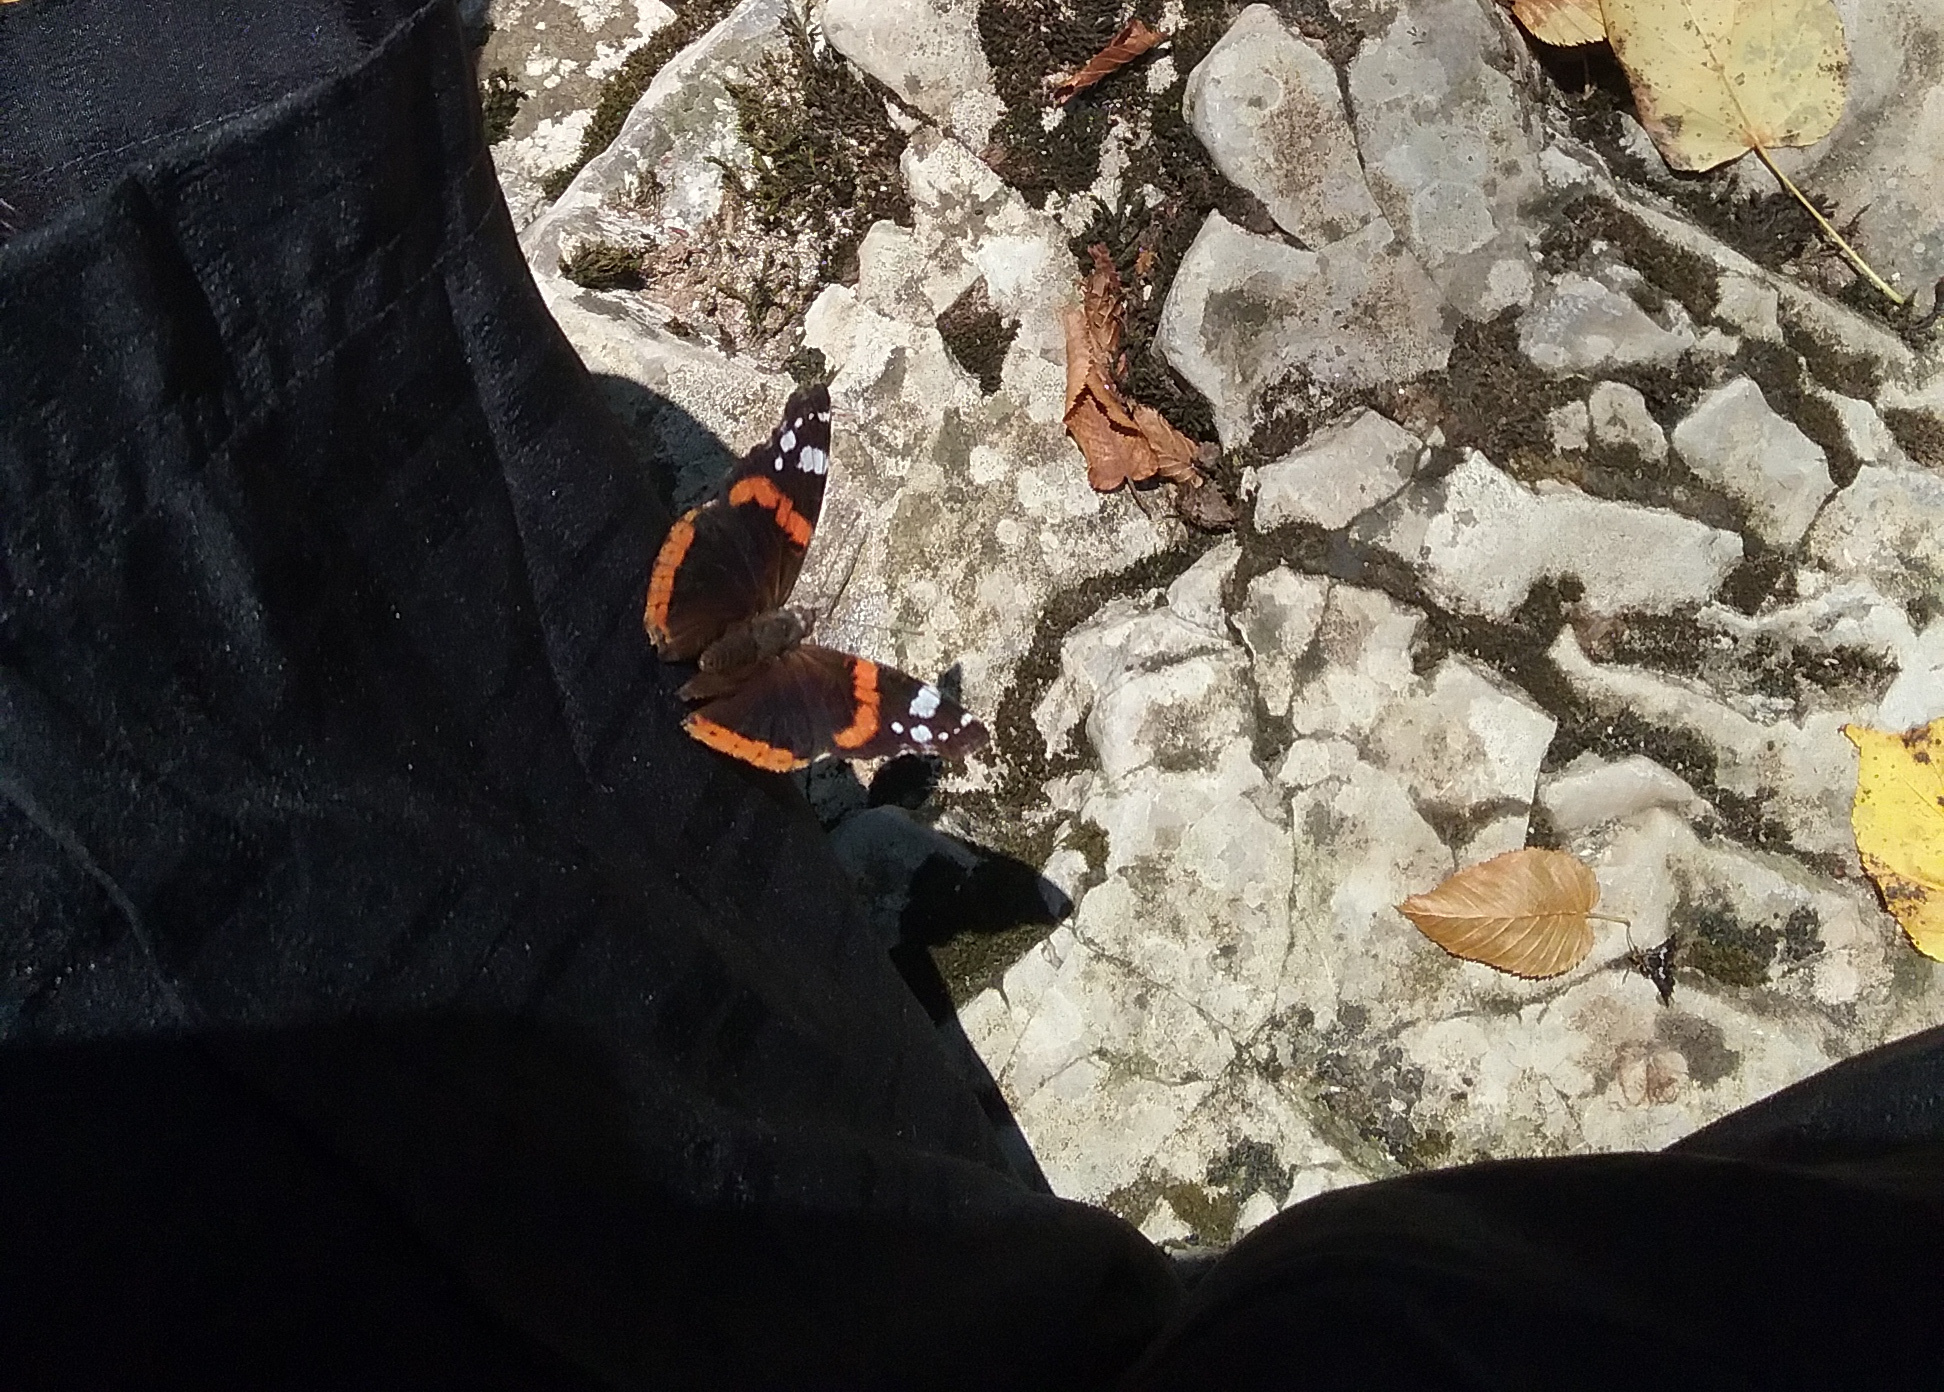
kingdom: Animalia
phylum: Arthropoda
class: Insecta
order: Lepidoptera
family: Nymphalidae
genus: Vanessa
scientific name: Vanessa atalanta
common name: Red admiral
